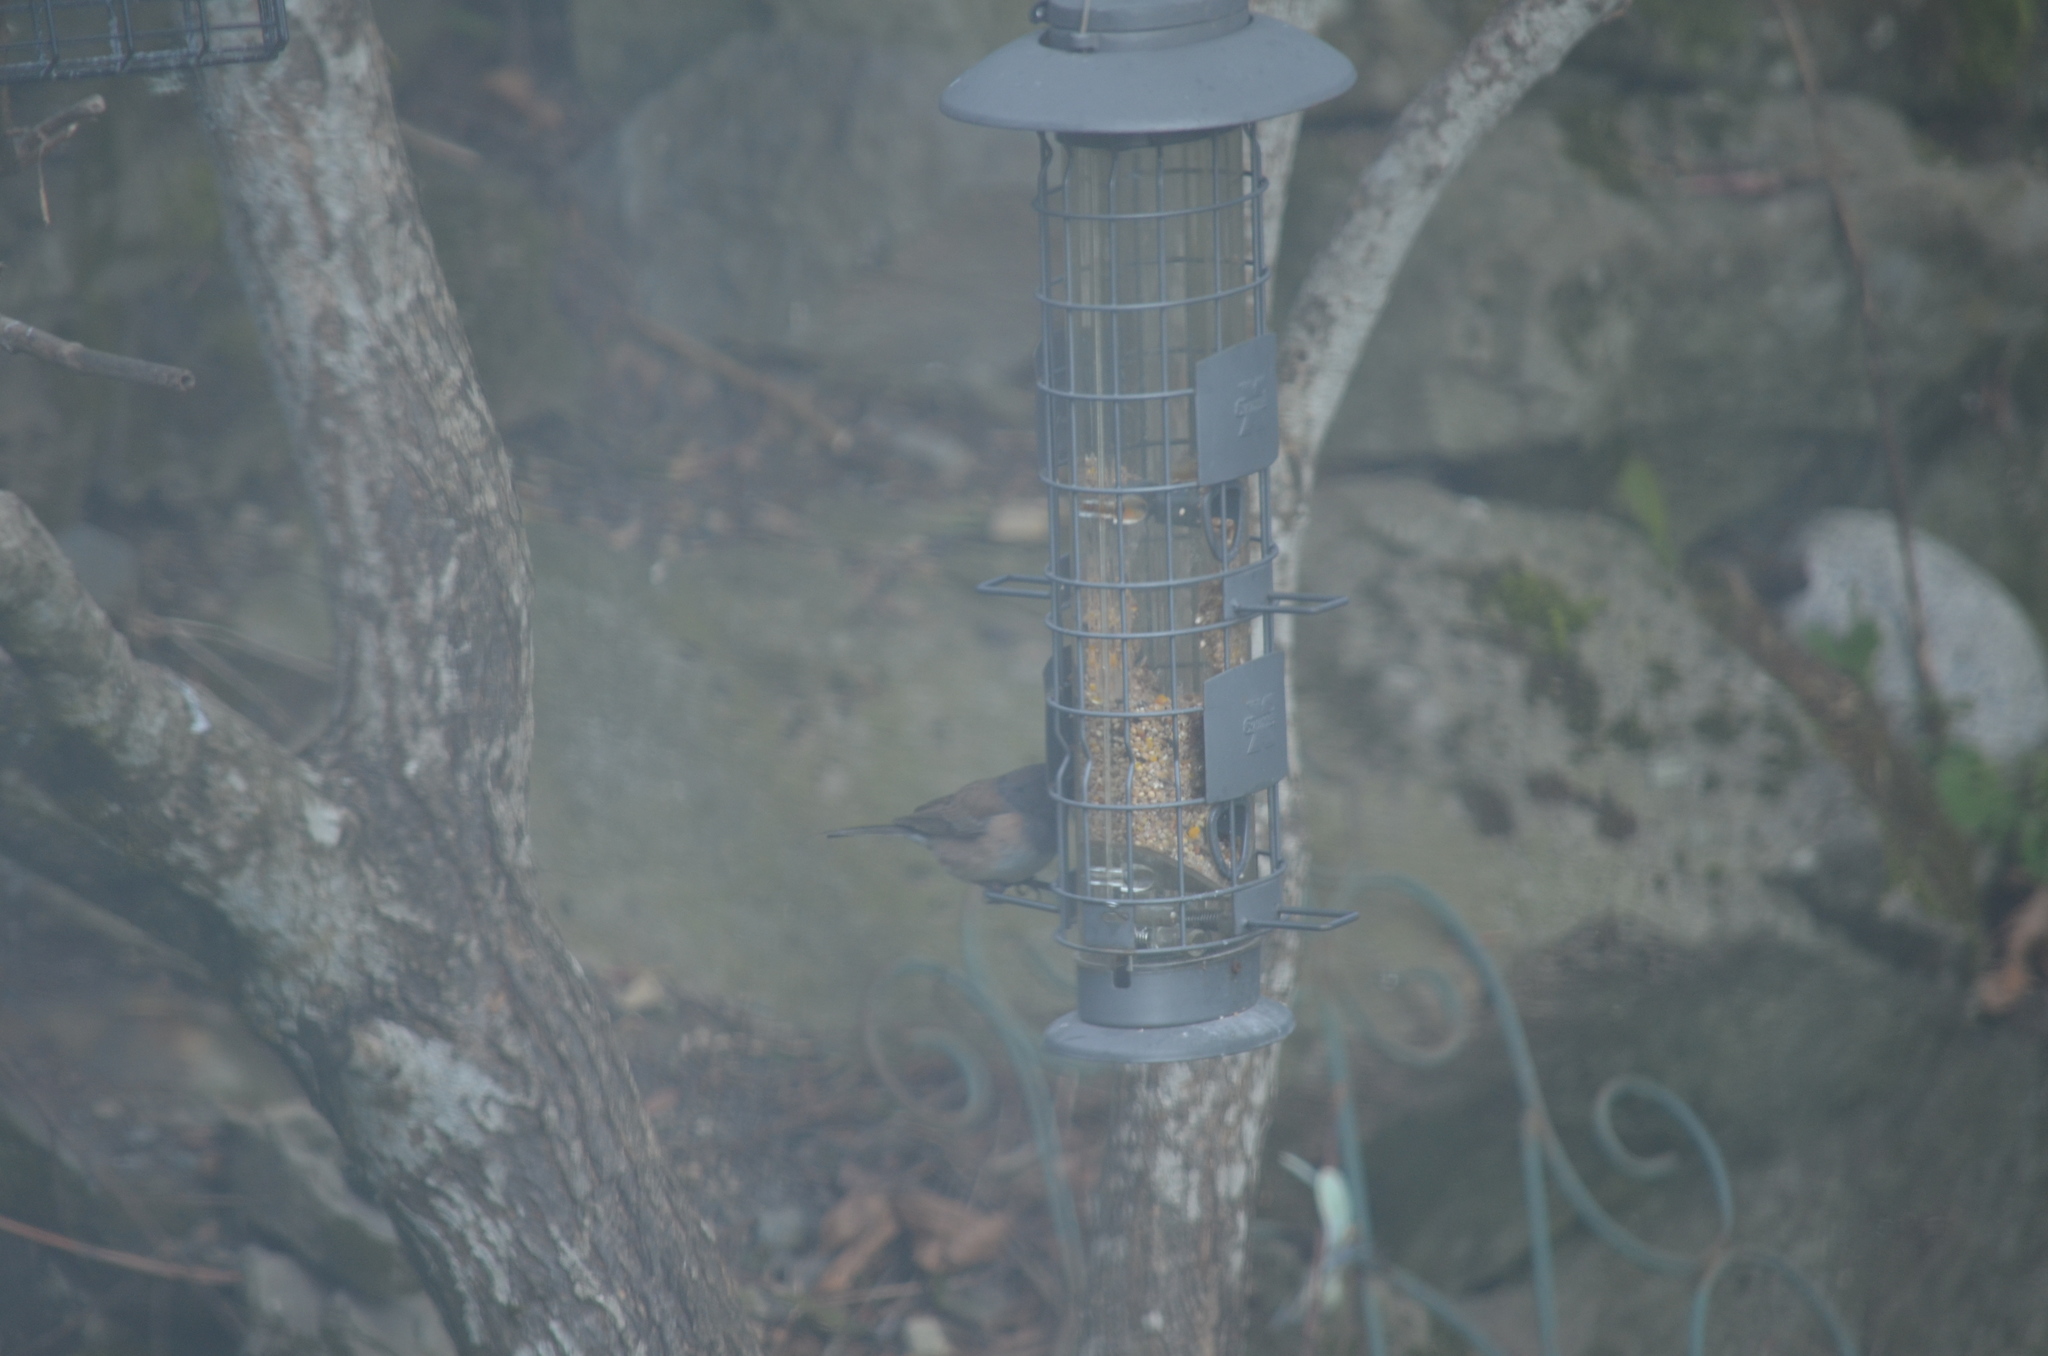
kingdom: Animalia
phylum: Chordata
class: Aves
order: Passeriformes
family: Passerellidae
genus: Junco
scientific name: Junco hyemalis
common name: Dark-eyed junco
